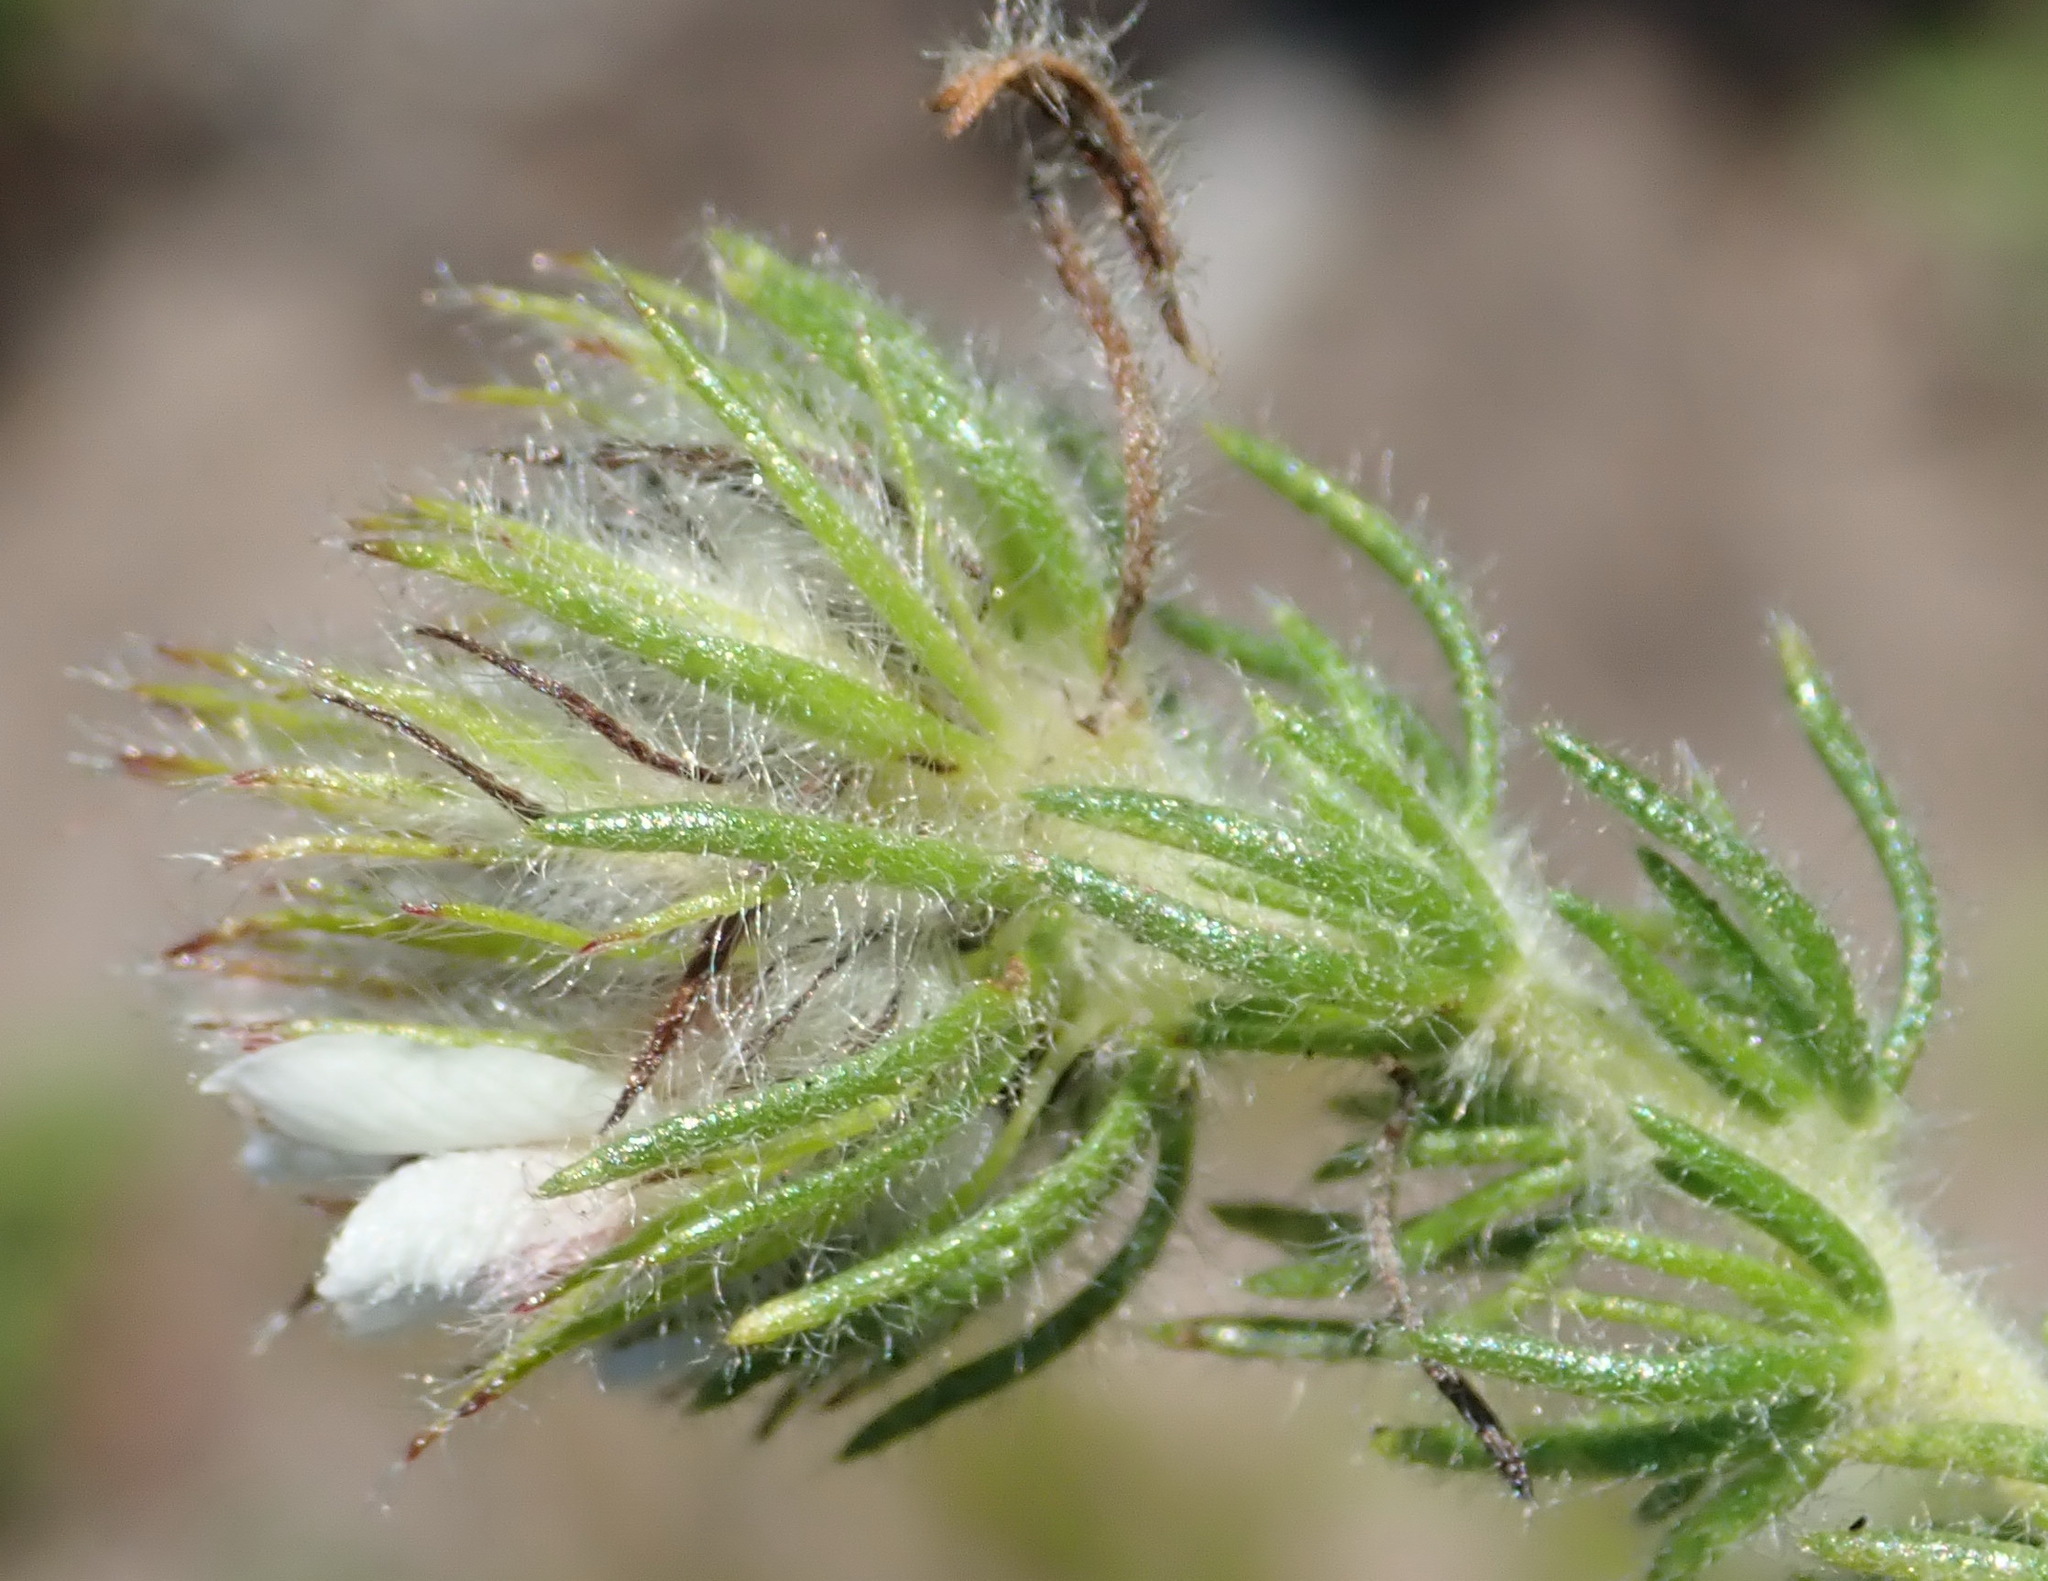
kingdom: Plantae
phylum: Tracheophyta
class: Magnoliopsida
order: Fabales
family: Fabaceae
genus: Aspalathus
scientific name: Aspalathus cerrhantha
